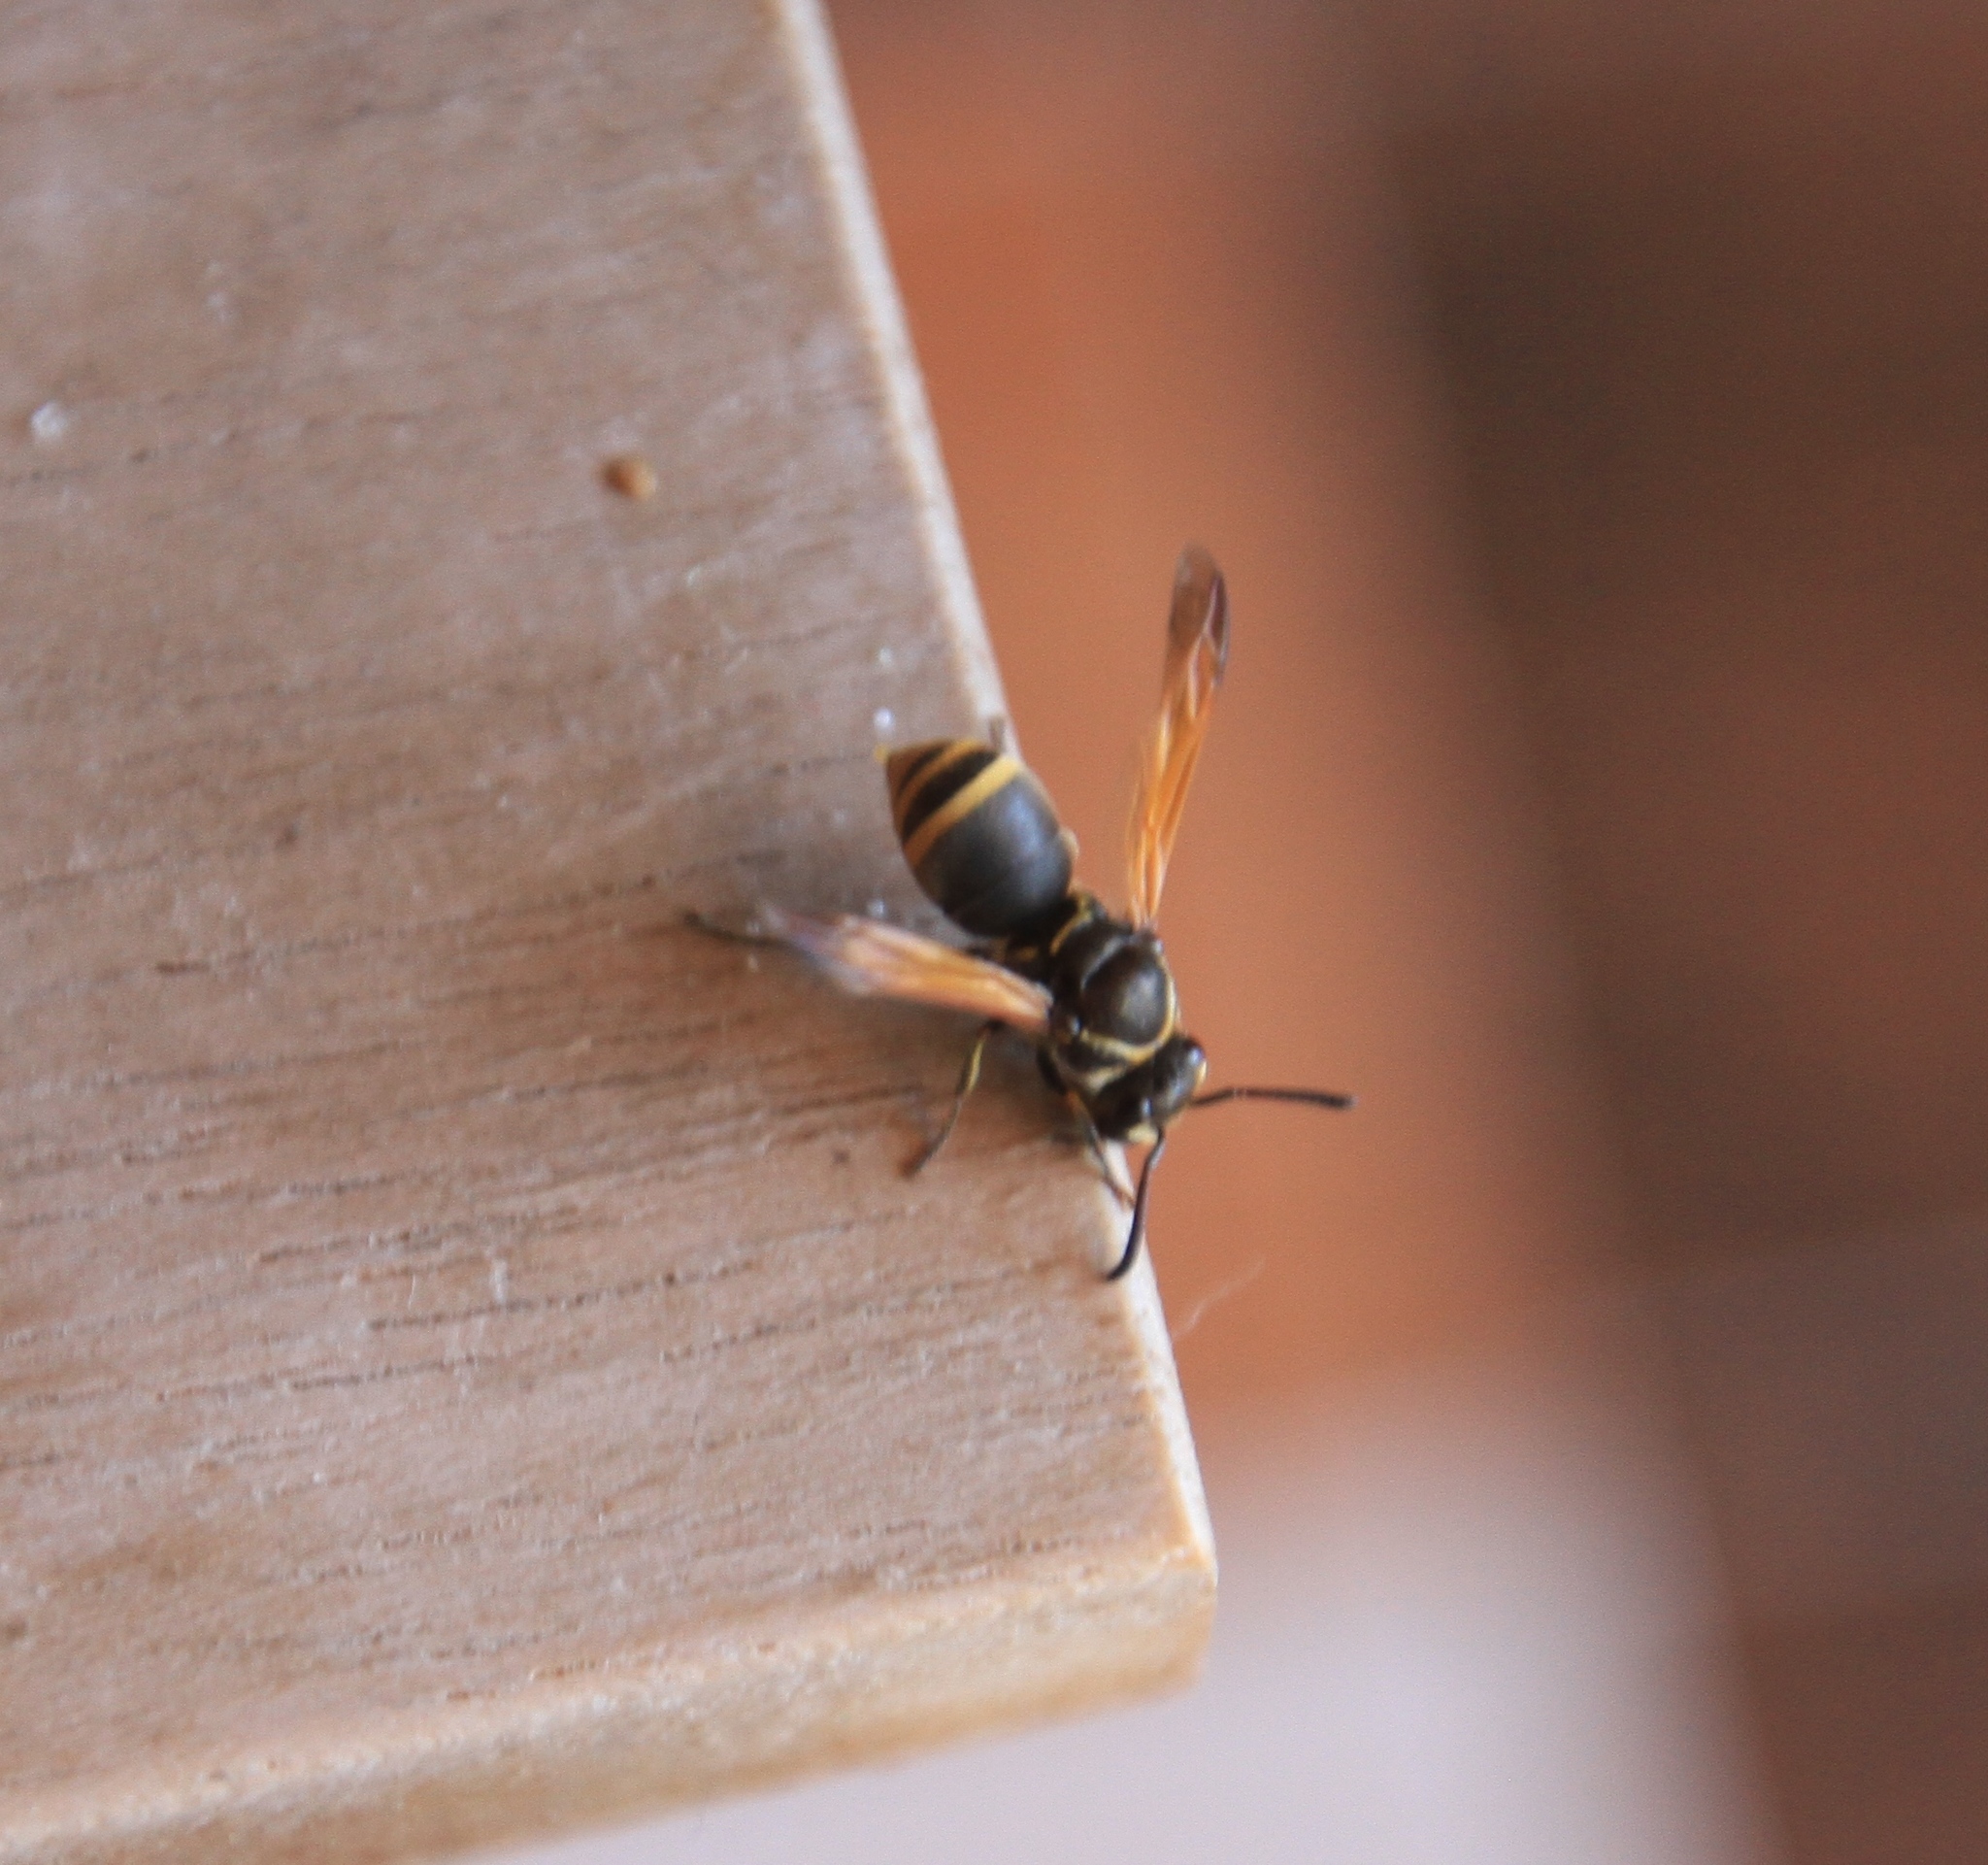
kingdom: Animalia
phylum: Arthropoda
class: Insecta
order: Hymenoptera
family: Eumenidae
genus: Pachodynerus
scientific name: Pachodynerus nasidens
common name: Key hole wasp
